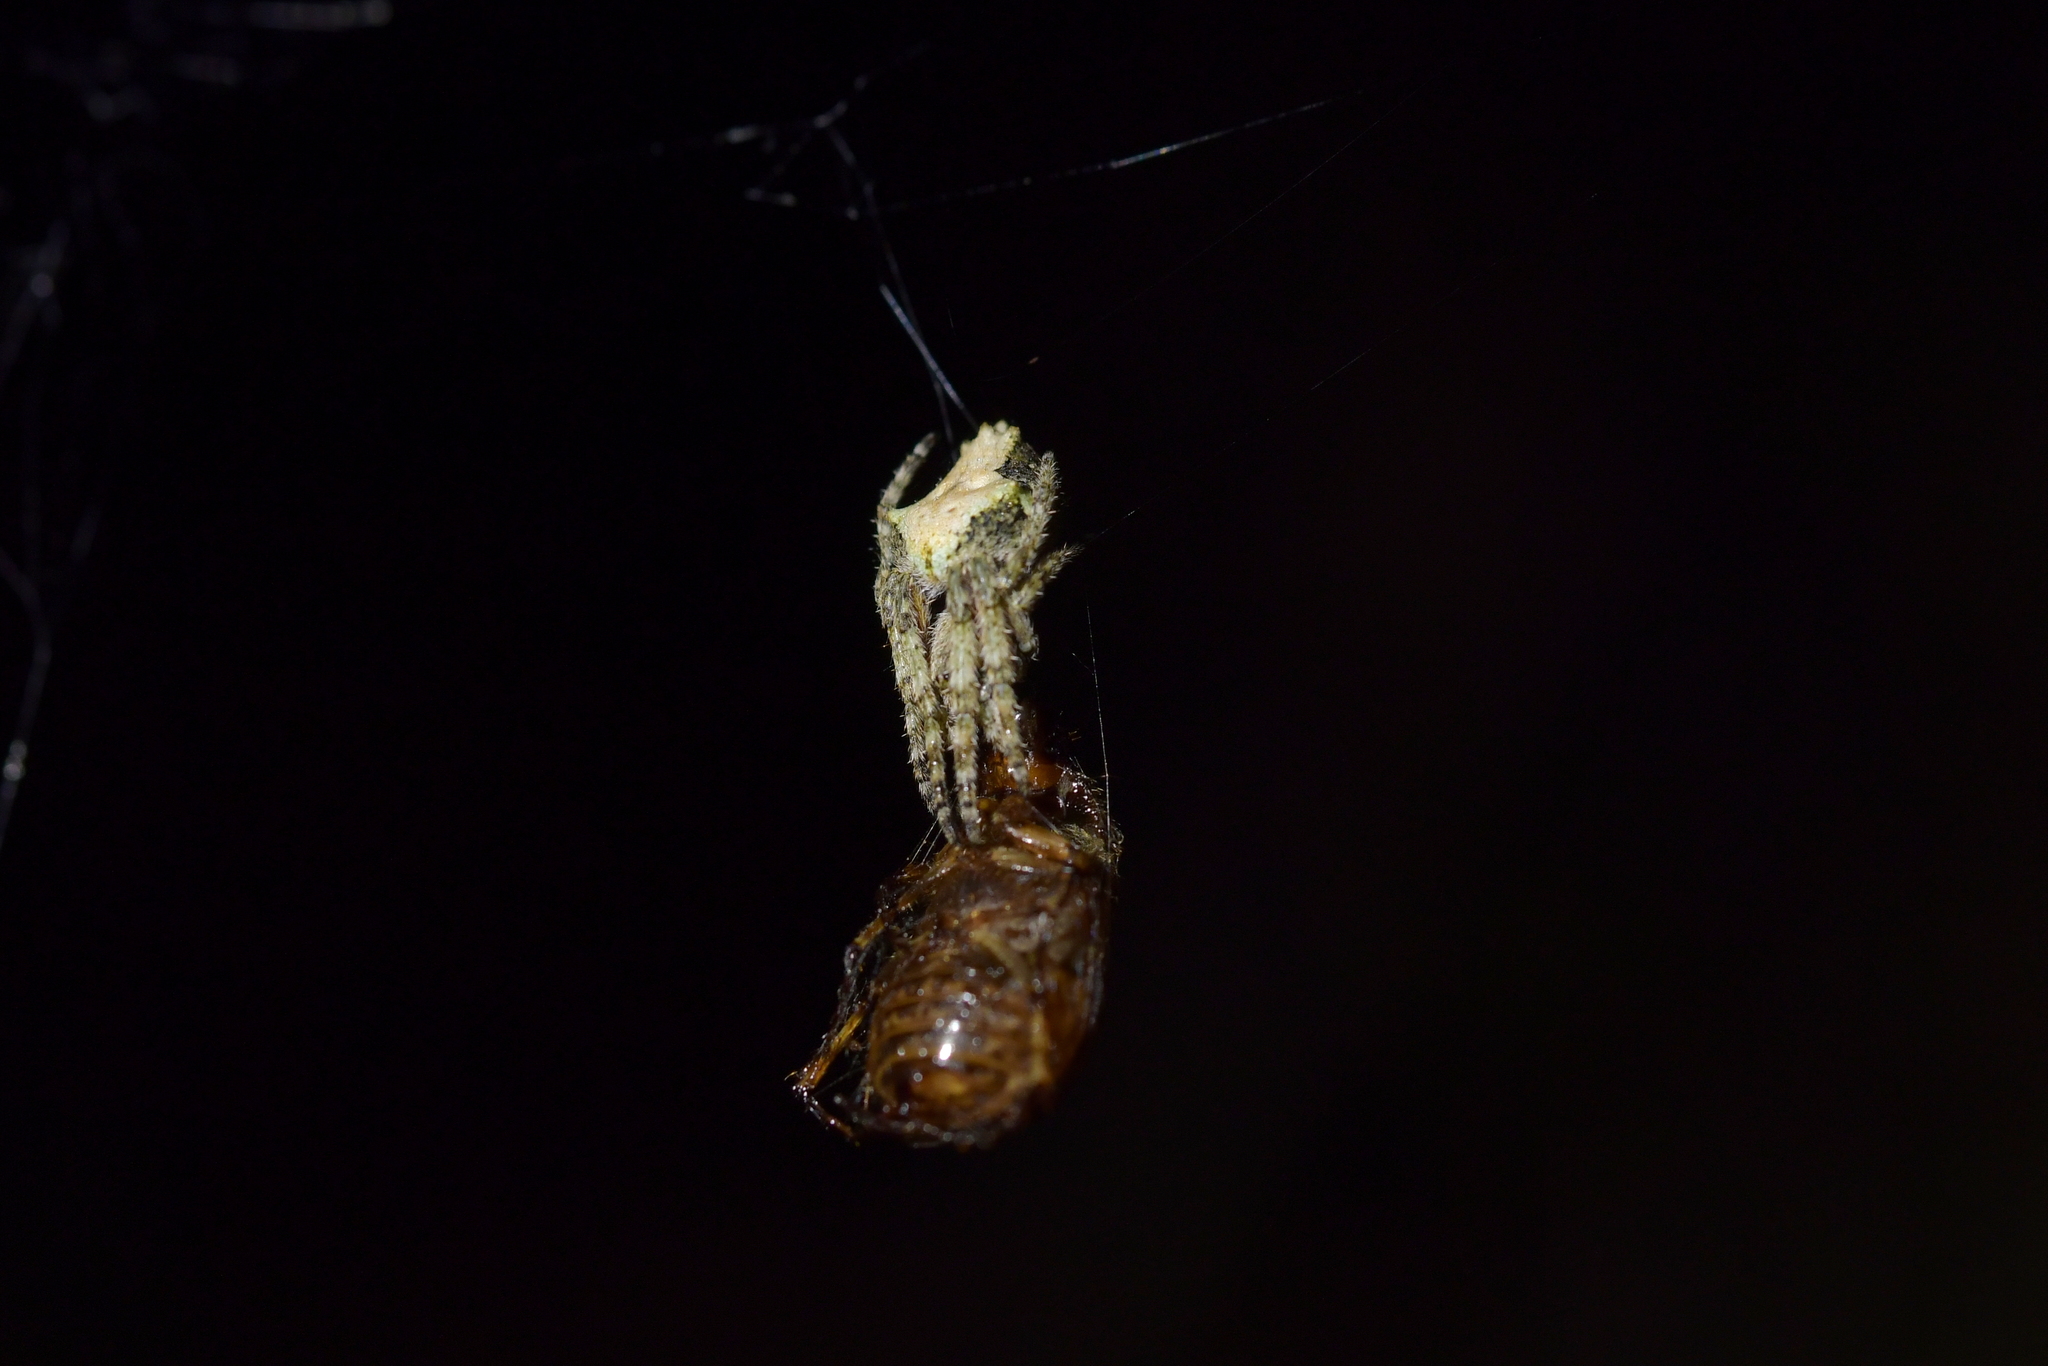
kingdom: Animalia
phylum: Arthropoda
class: Arachnida
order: Araneae
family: Araneidae
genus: Eriophora
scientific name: Eriophora pustulosa
